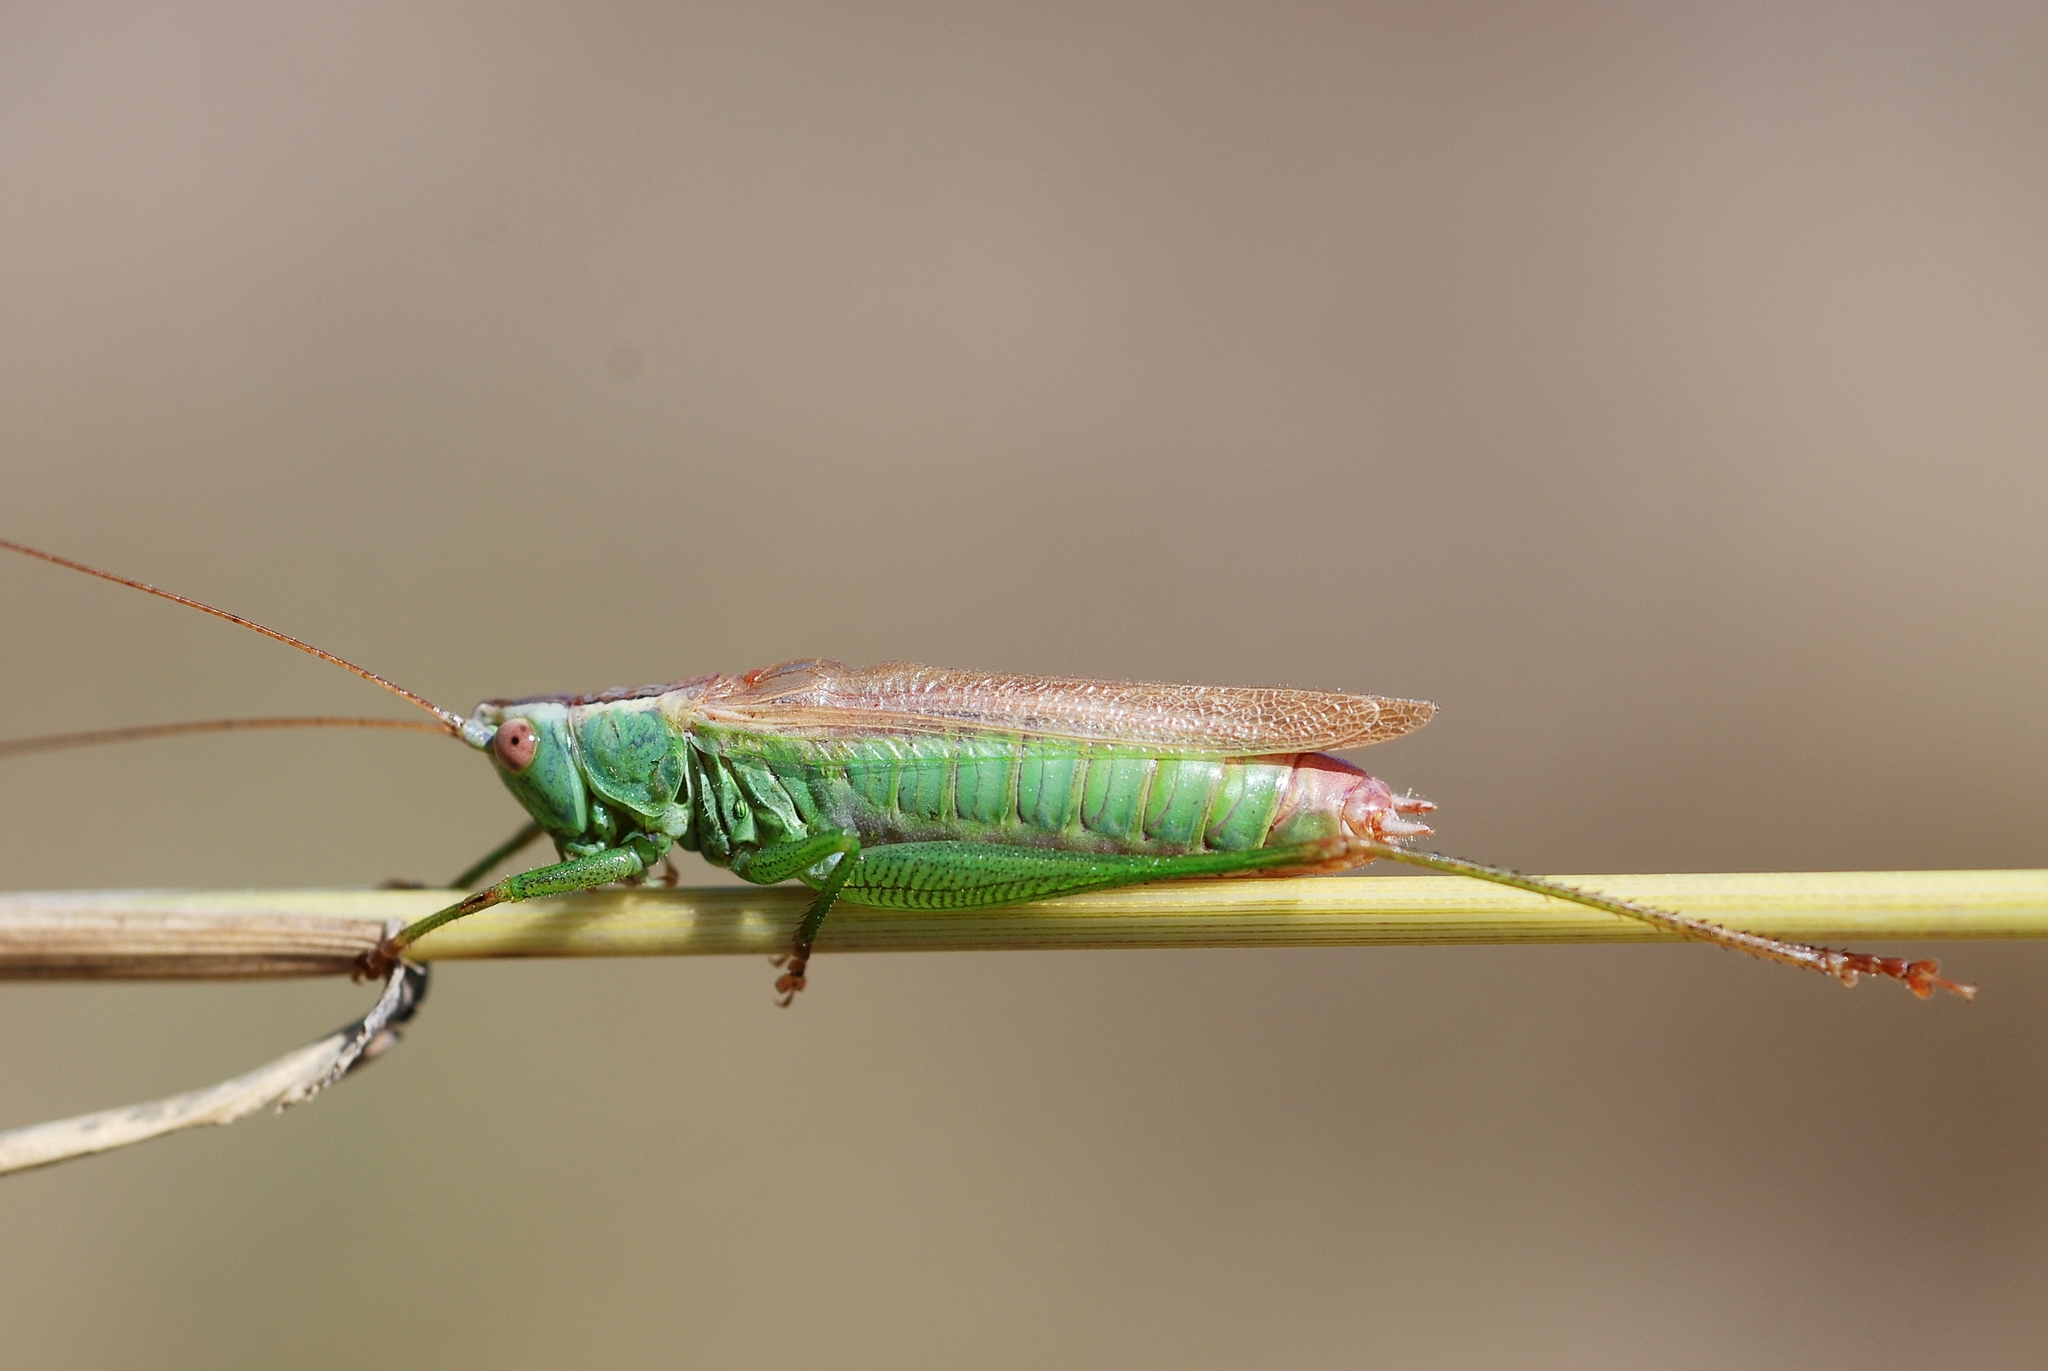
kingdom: Animalia
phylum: Arthropoda
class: Insecta
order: Orthoptera
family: Tettigoniidae
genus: Conocephalus
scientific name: Conocephalus fuscus
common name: Long-winged conehead
